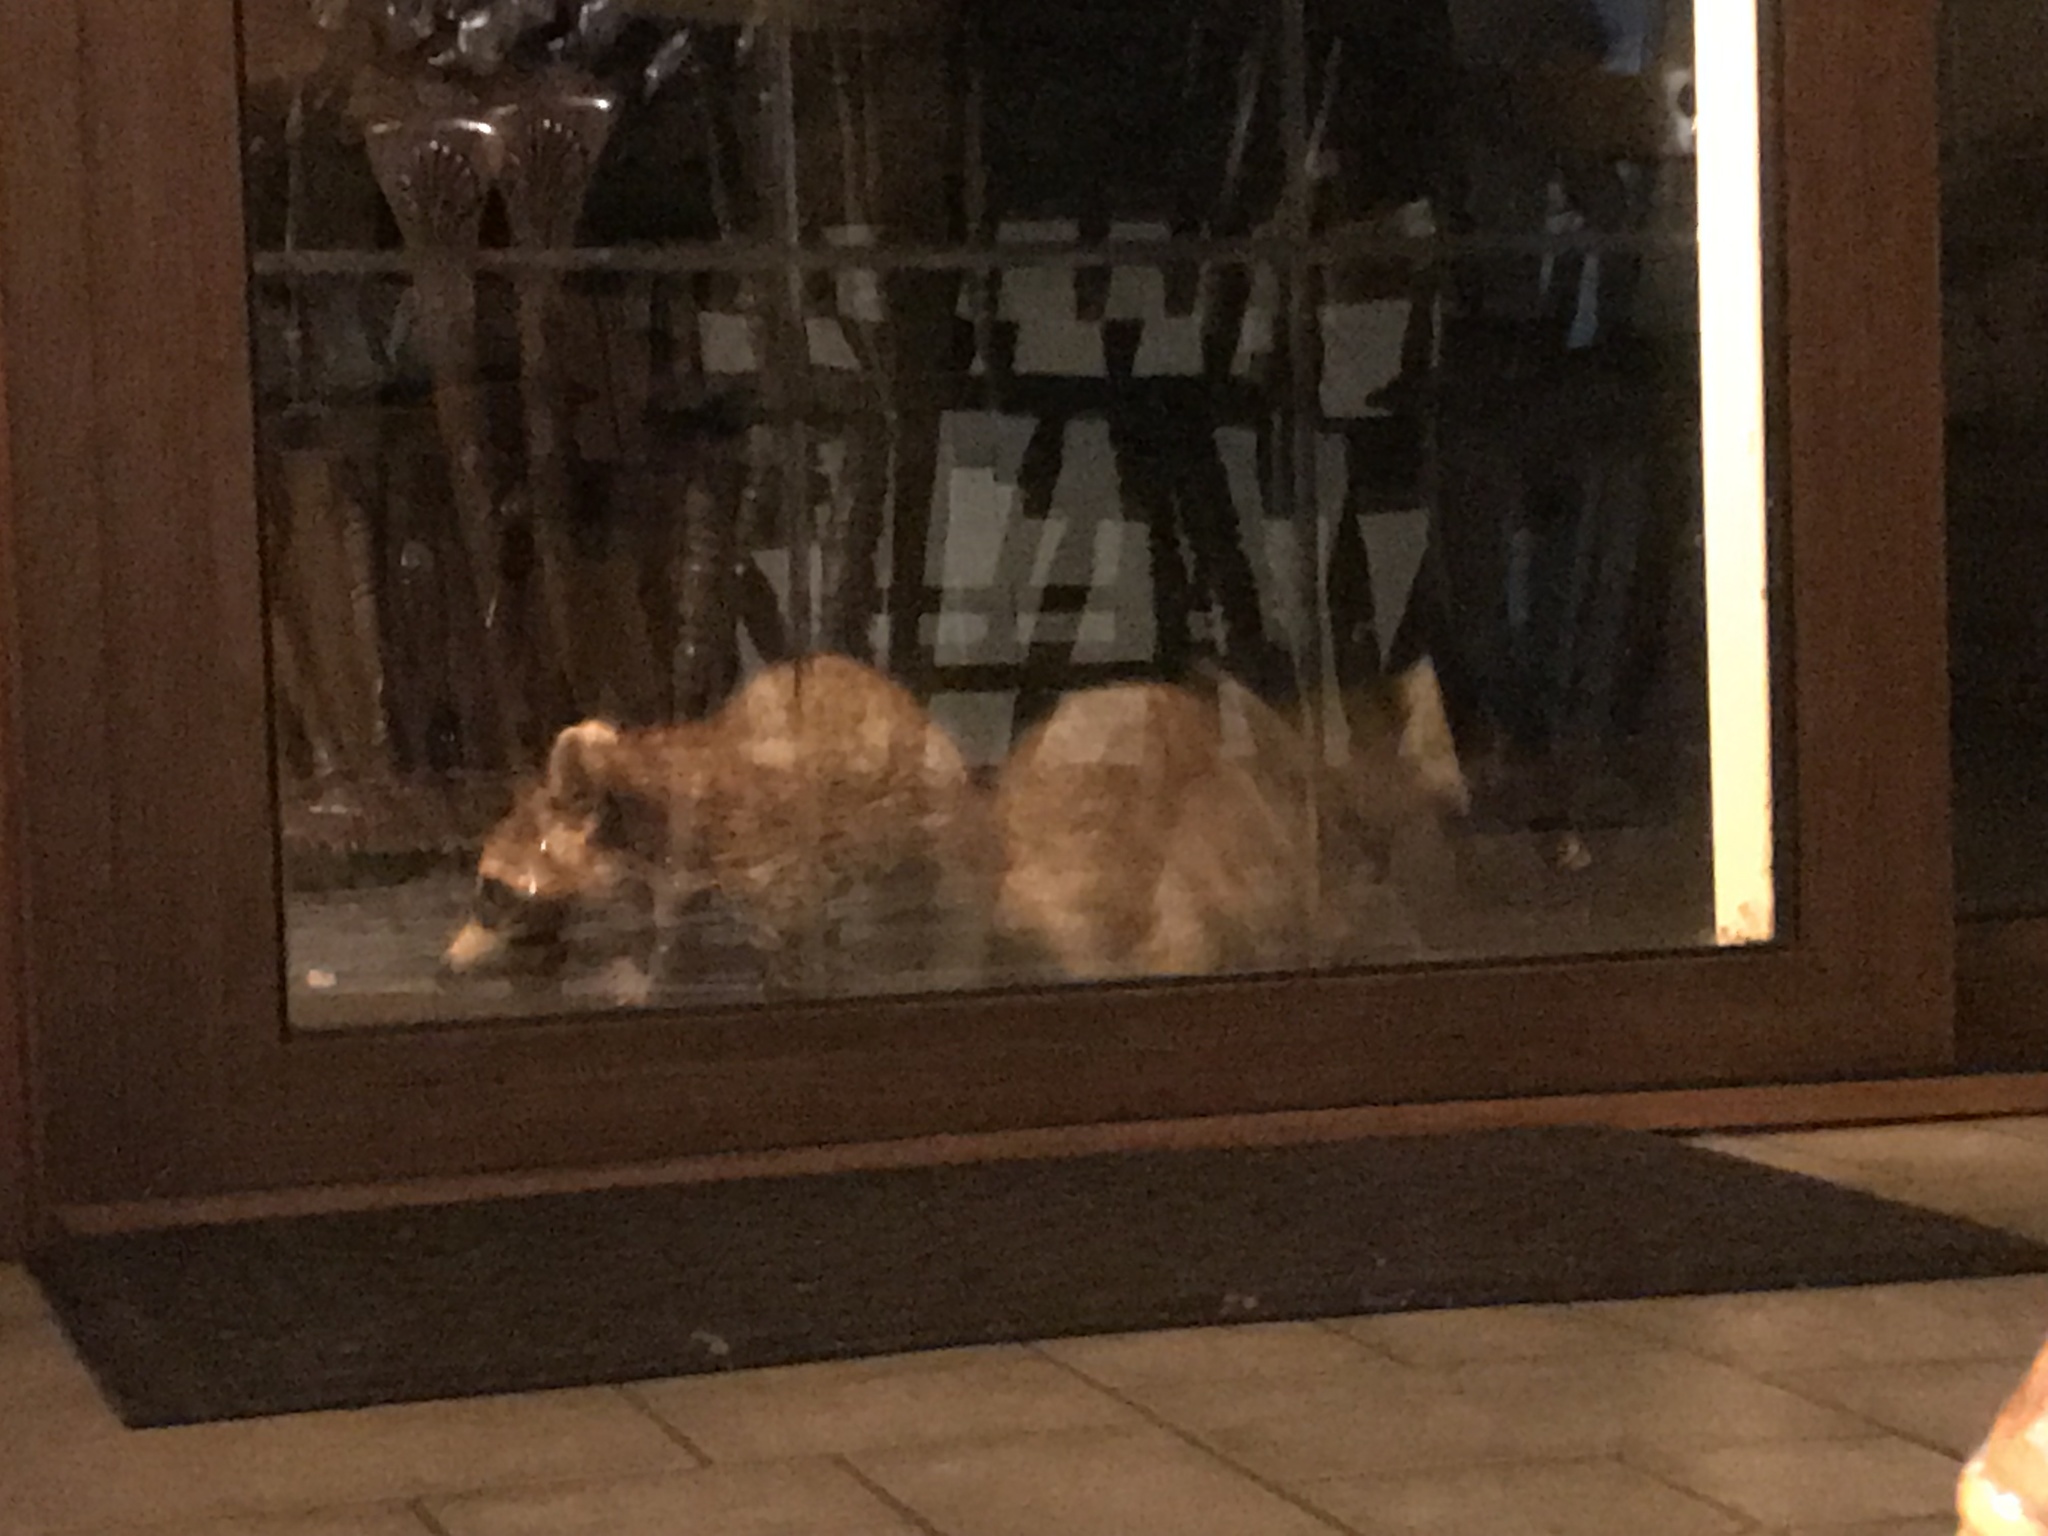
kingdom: Animalia
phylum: Chordata
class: Mammalia
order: Carnivora
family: Procyonidae
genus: Procyon
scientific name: Procyon lotor
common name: Raccoon
